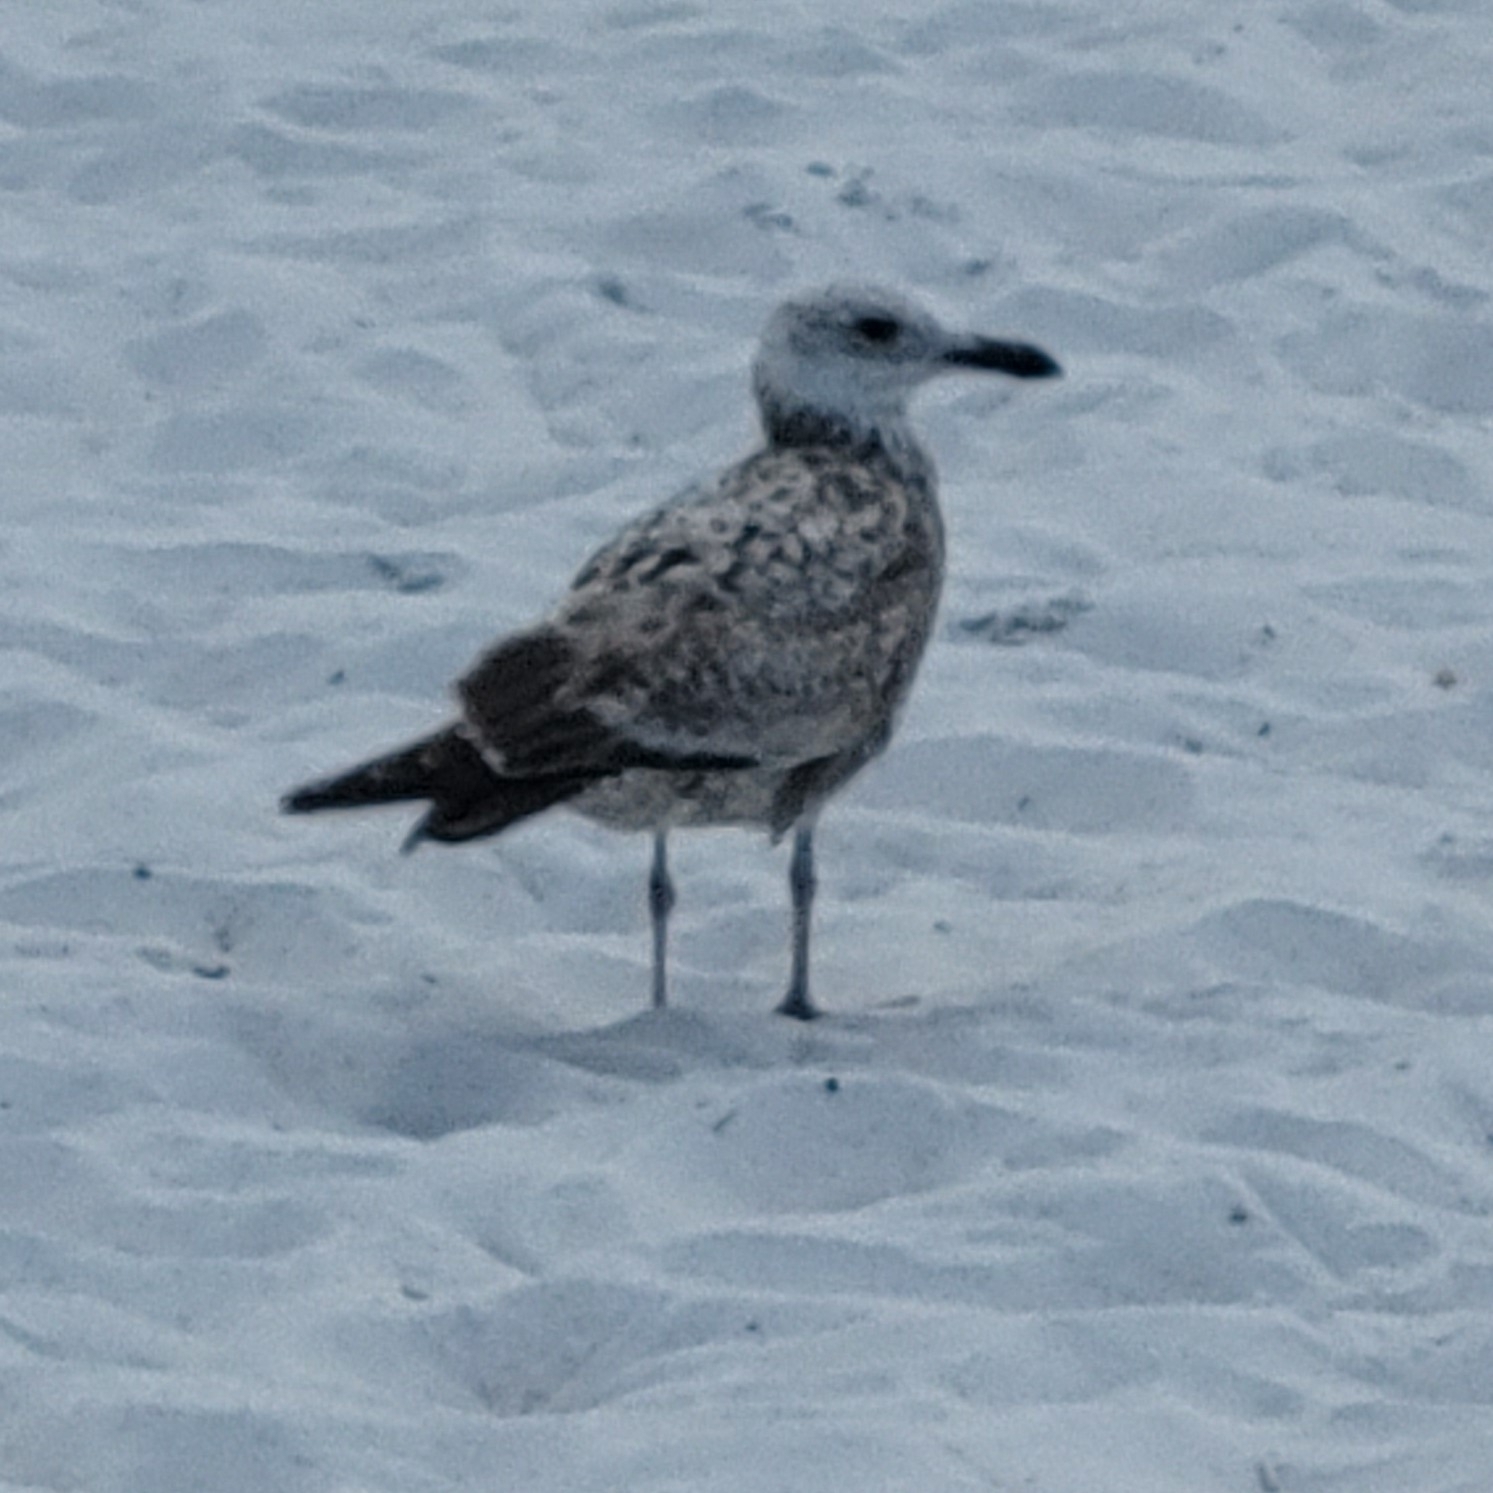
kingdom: Animalia
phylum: Chordata
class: Aves
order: Charadriiformes
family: Laridae
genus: Larus
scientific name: Larus fuscus
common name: Lesser black-backed gull
